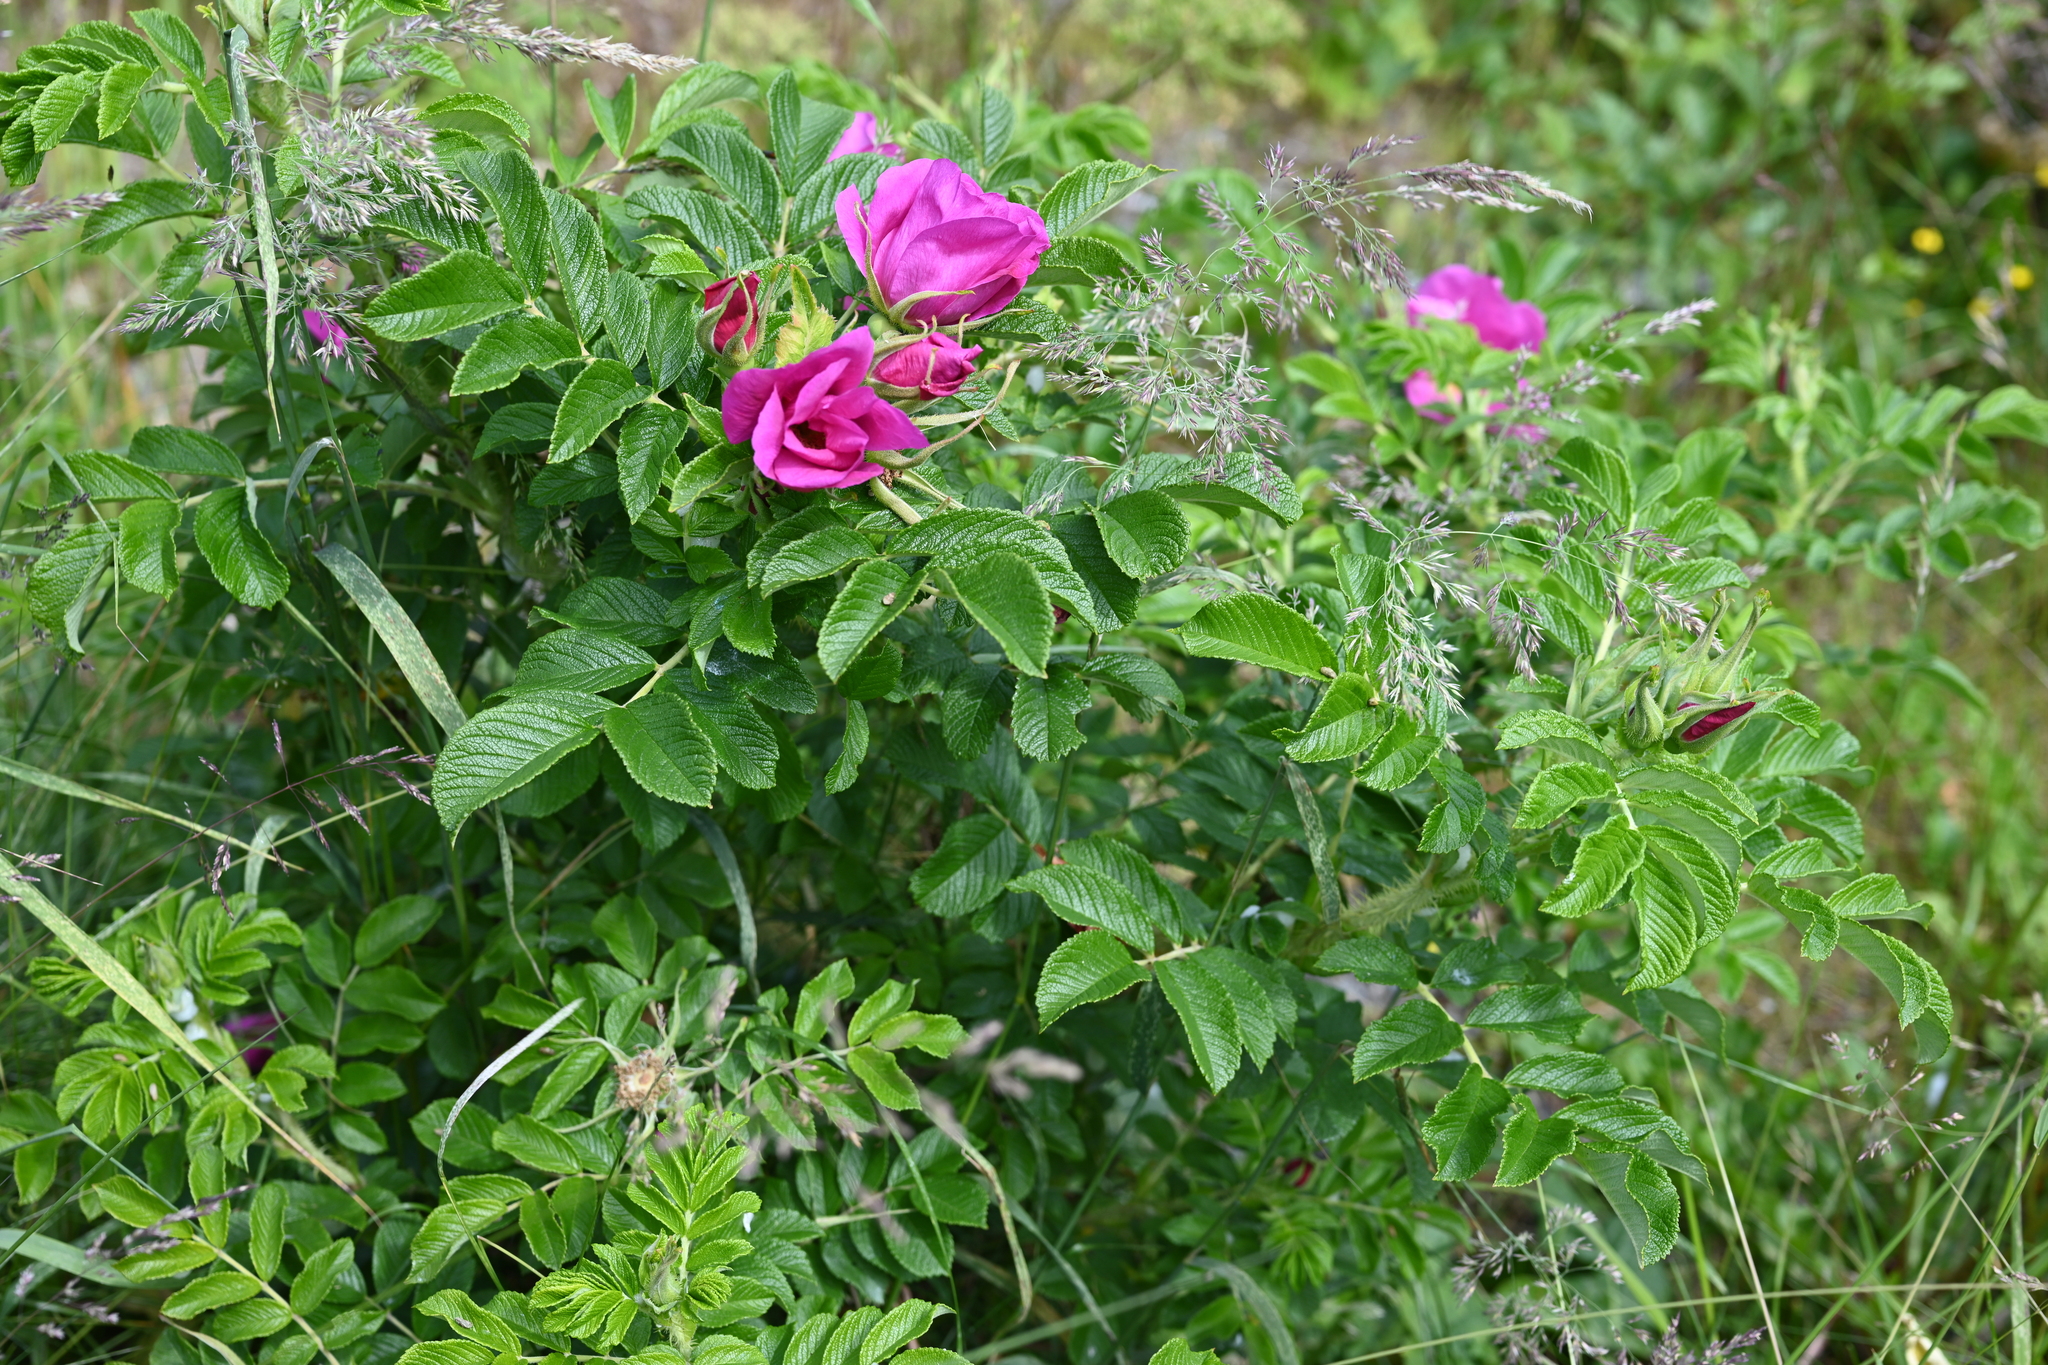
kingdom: Plantae
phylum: Tracheophyta
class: Magnoliopsida
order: Rosales
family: Rosaceae
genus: Rosa
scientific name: Rosa rugosa
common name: Japanese rose
